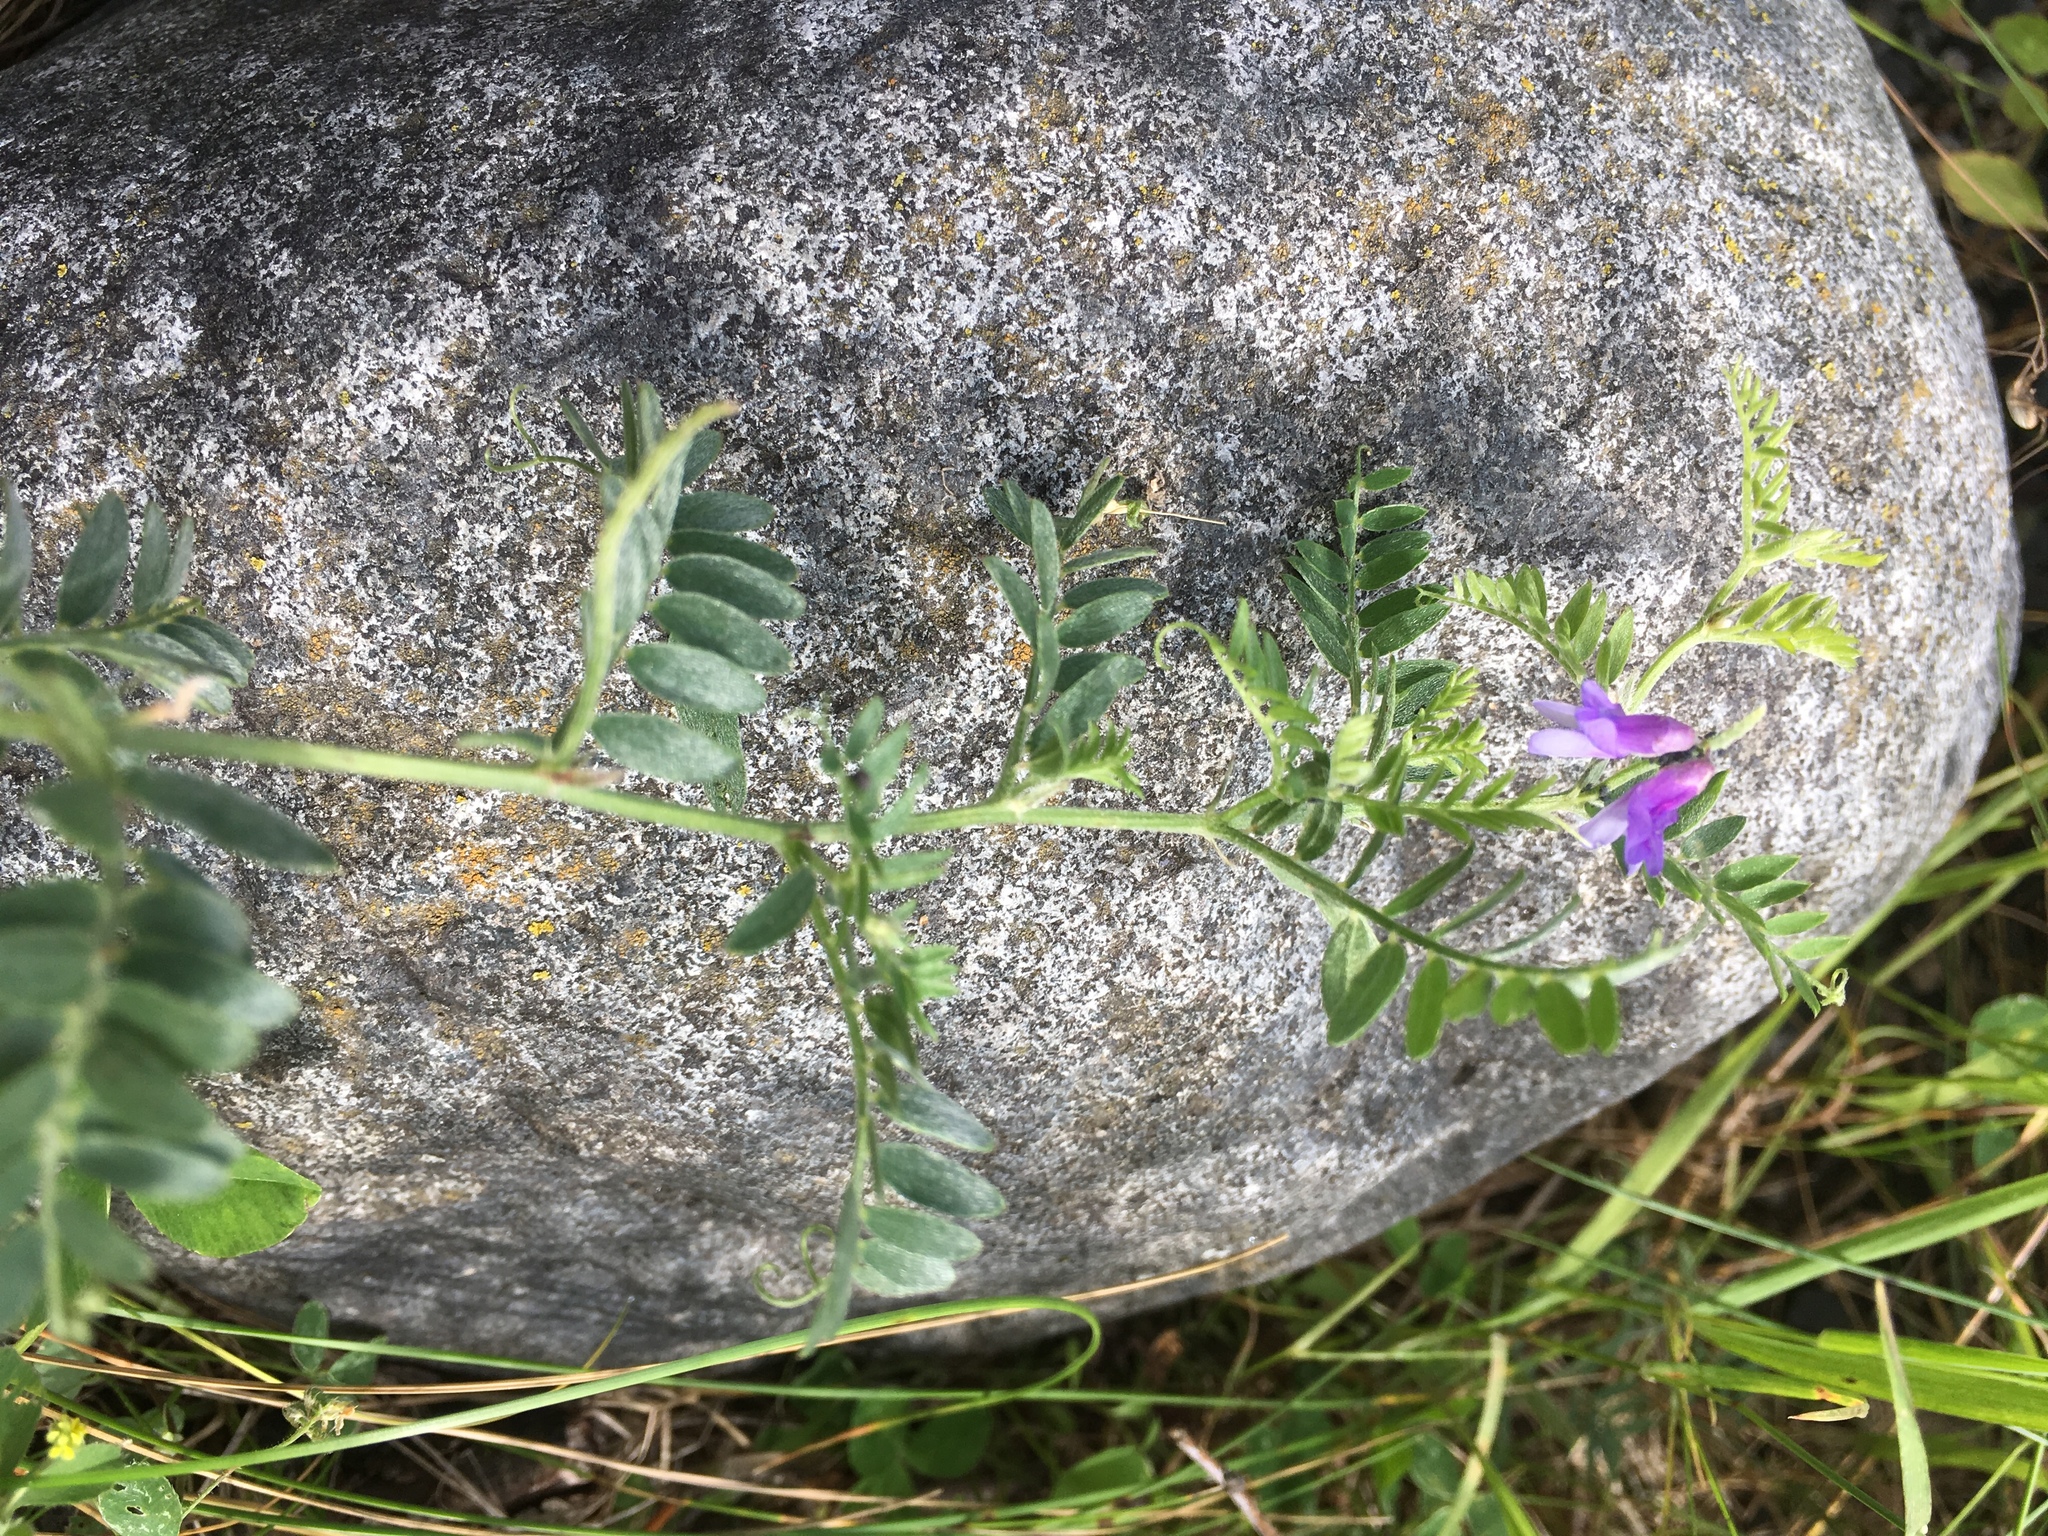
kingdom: Plantae
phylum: Tracheophyta
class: Magnoliopsida
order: Fabales
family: Fabaceae
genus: Vicia
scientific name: Vicia cracca
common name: Bird vetch
